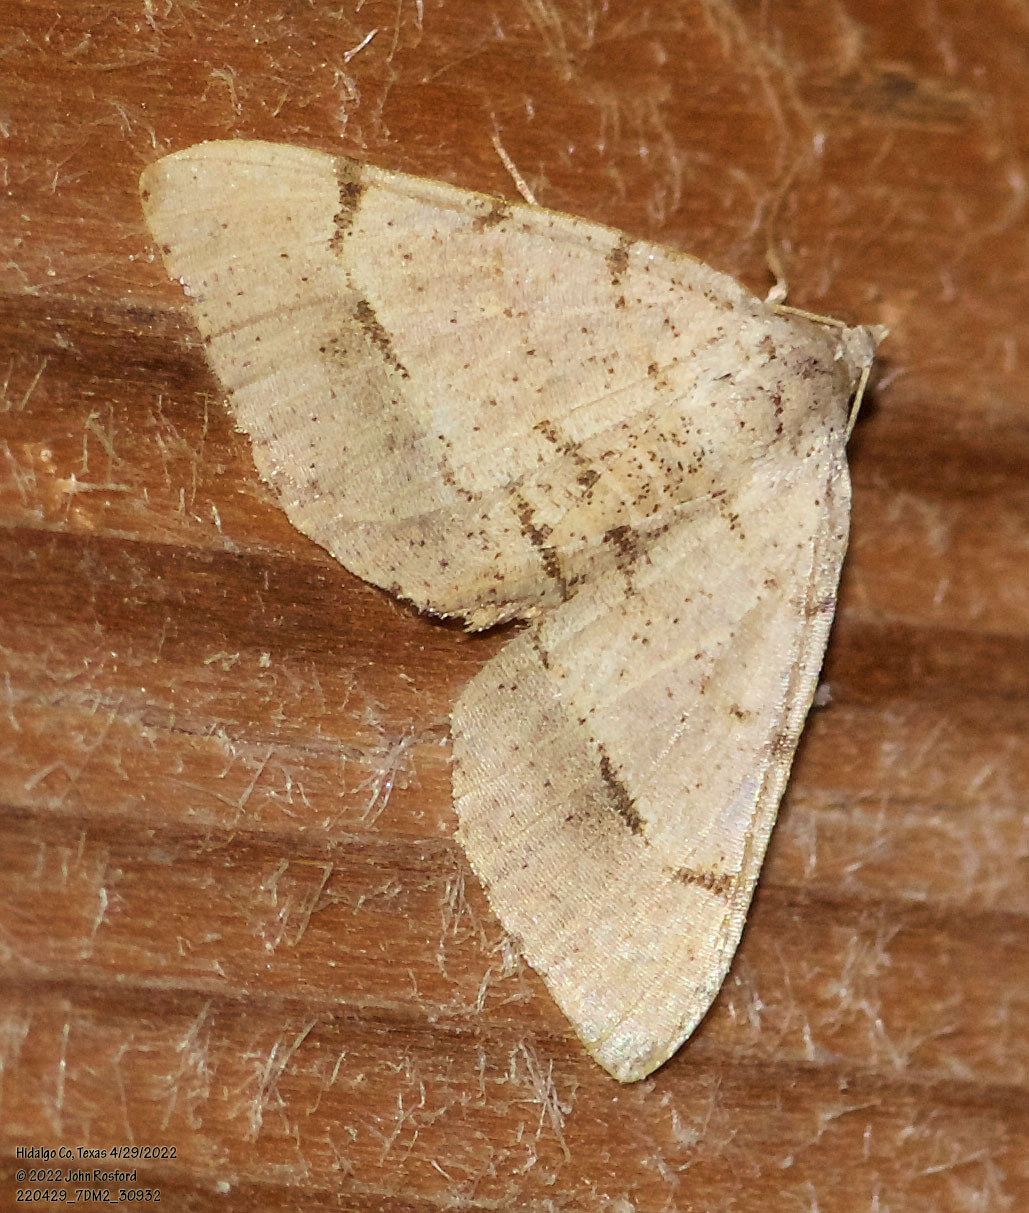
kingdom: Animalia
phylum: Arthropoda
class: Insecta
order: Lepidoptera
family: Geometridae
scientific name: Geometridae
